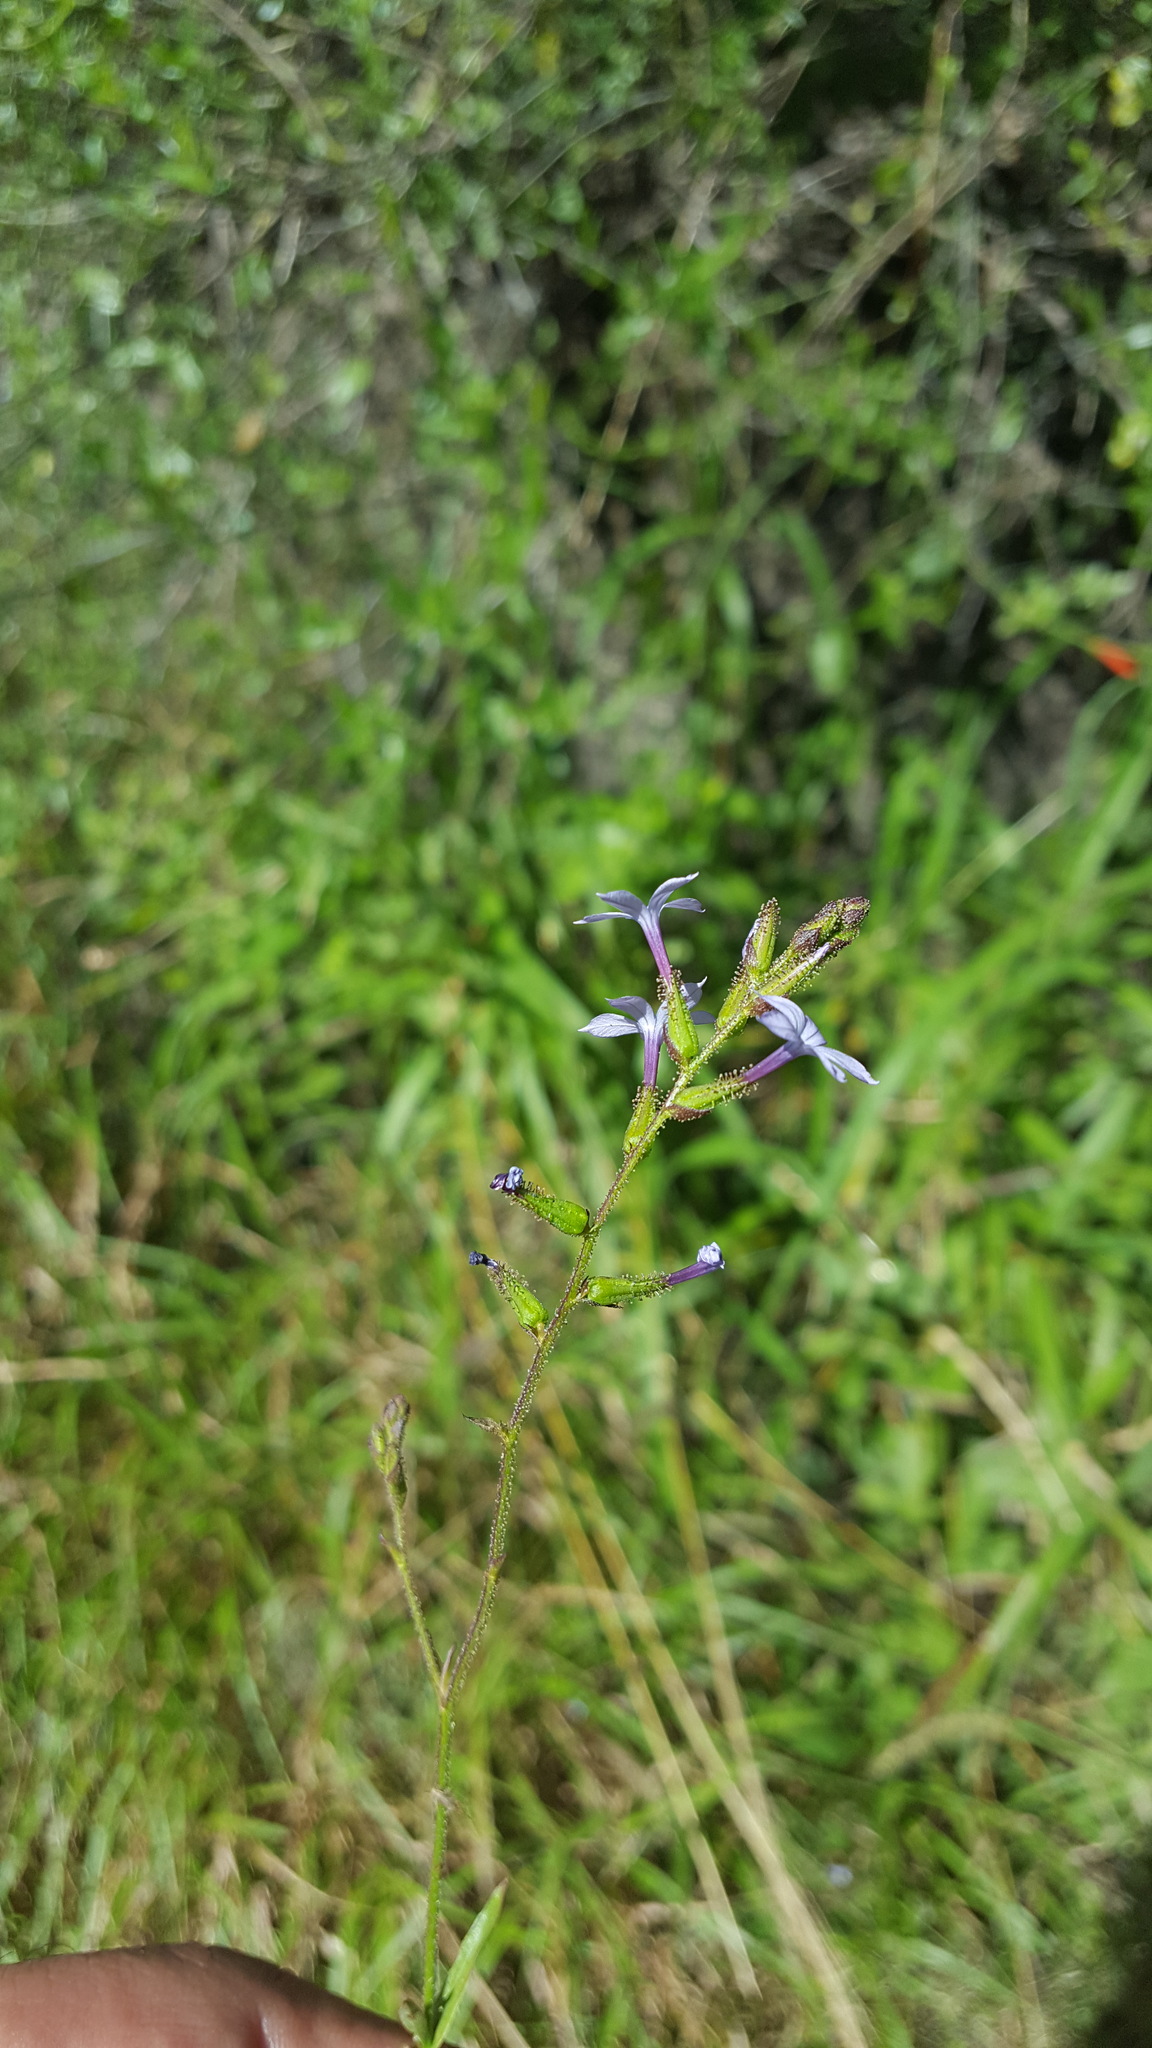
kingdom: Plantae
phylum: Tracheophyta
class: Magnoliopsida
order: Caryophyllales
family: Plumbaginaceae
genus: Plumbago
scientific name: Plumbago pulchella
